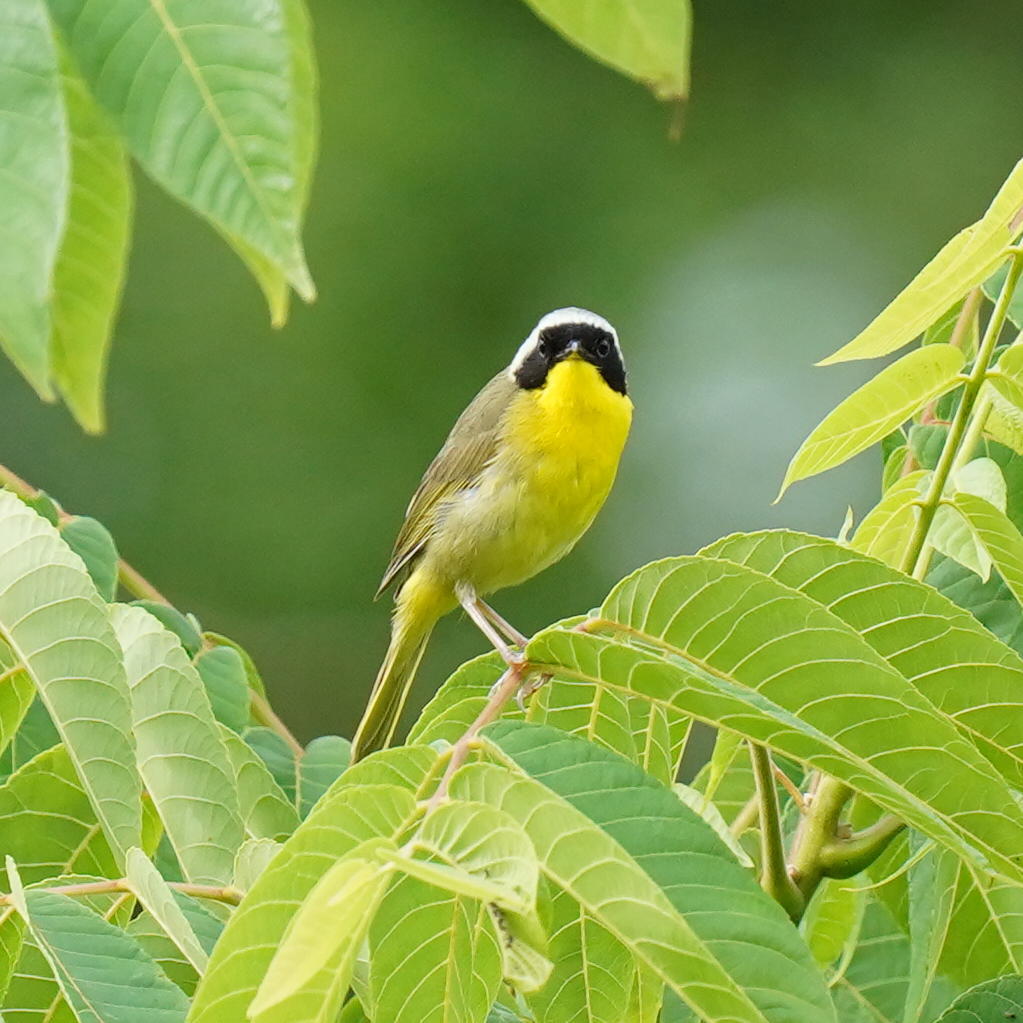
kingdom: Animalia
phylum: Chordata
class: Aves
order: Passeriformes
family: Parulidae
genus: Geothlypis
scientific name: Geothlypis trichas
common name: Common yellowthroat
